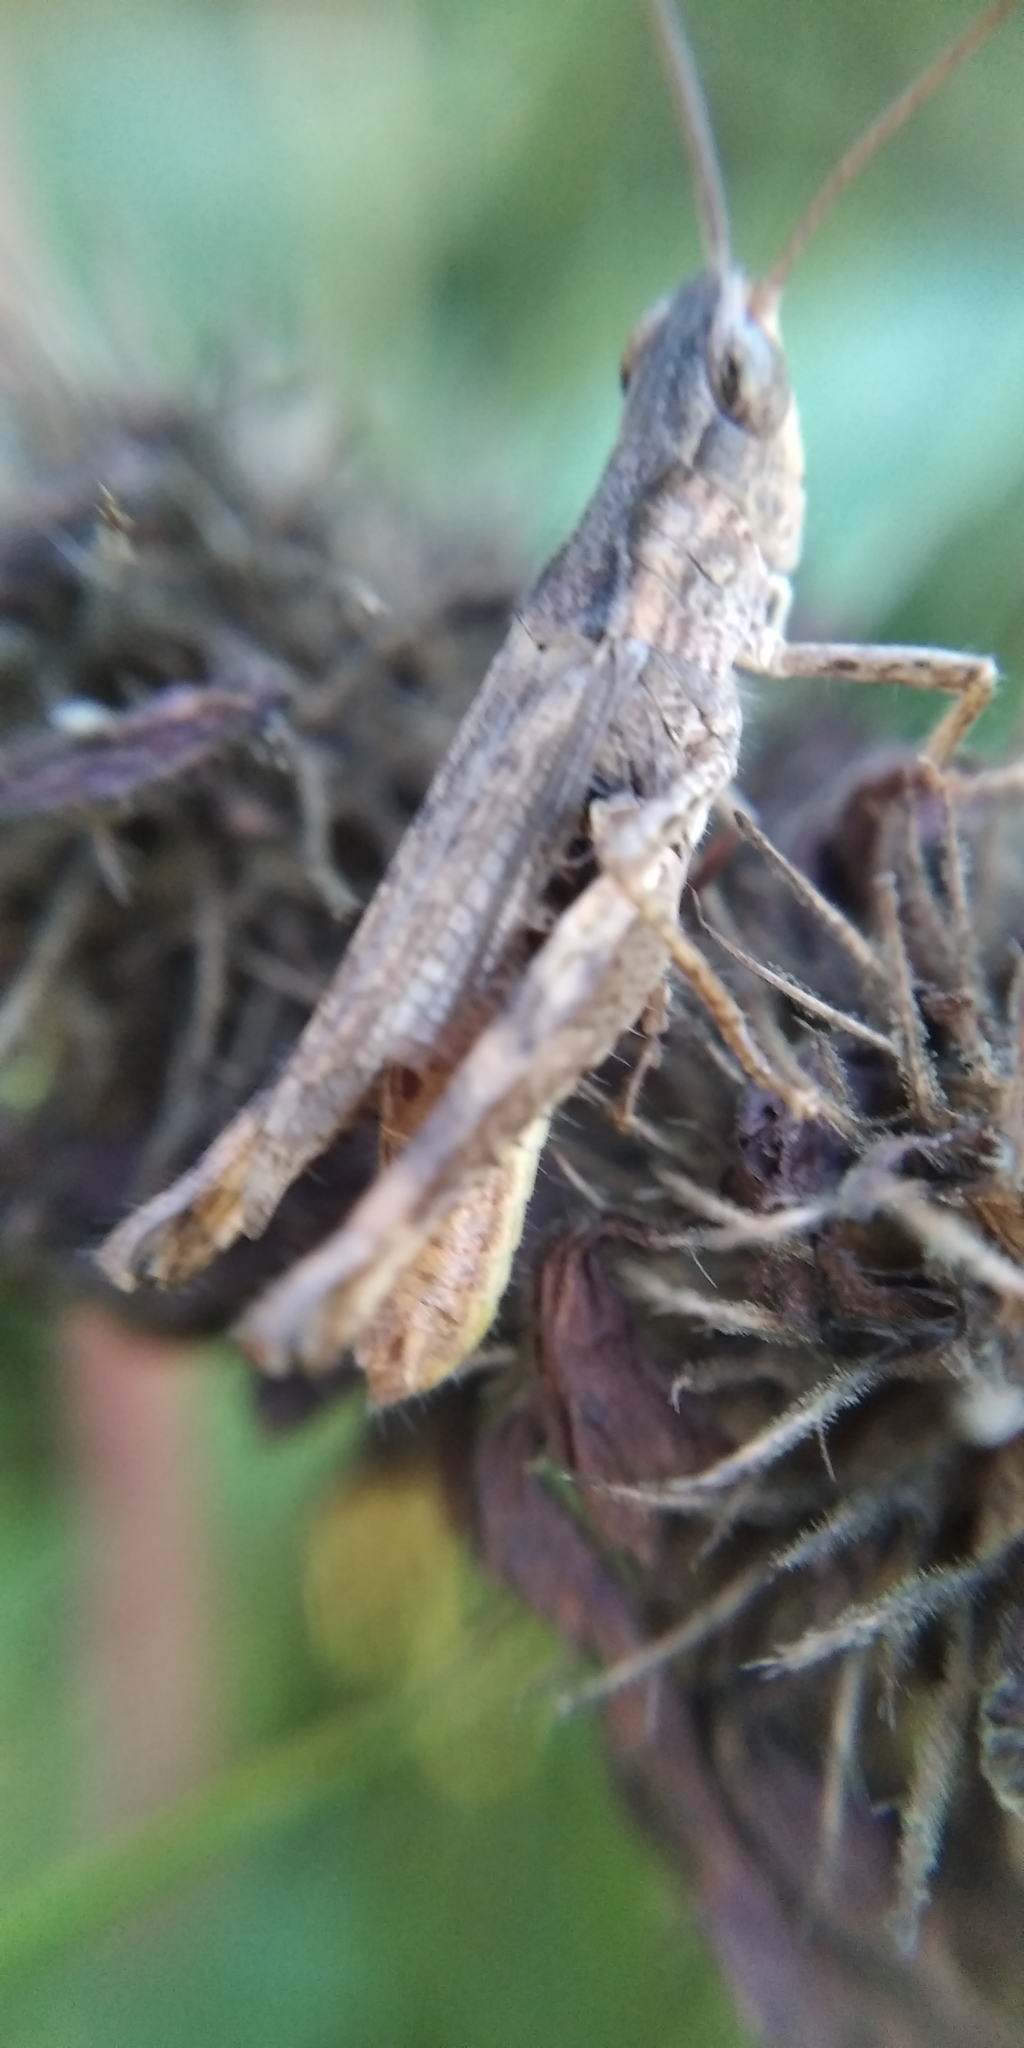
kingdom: Animalia
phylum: Arthropoda
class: Insecta
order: Orthoptera
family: Acrididae
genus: Chorthippus
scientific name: Chorthippus apricarius
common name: Upland field grasshopper
